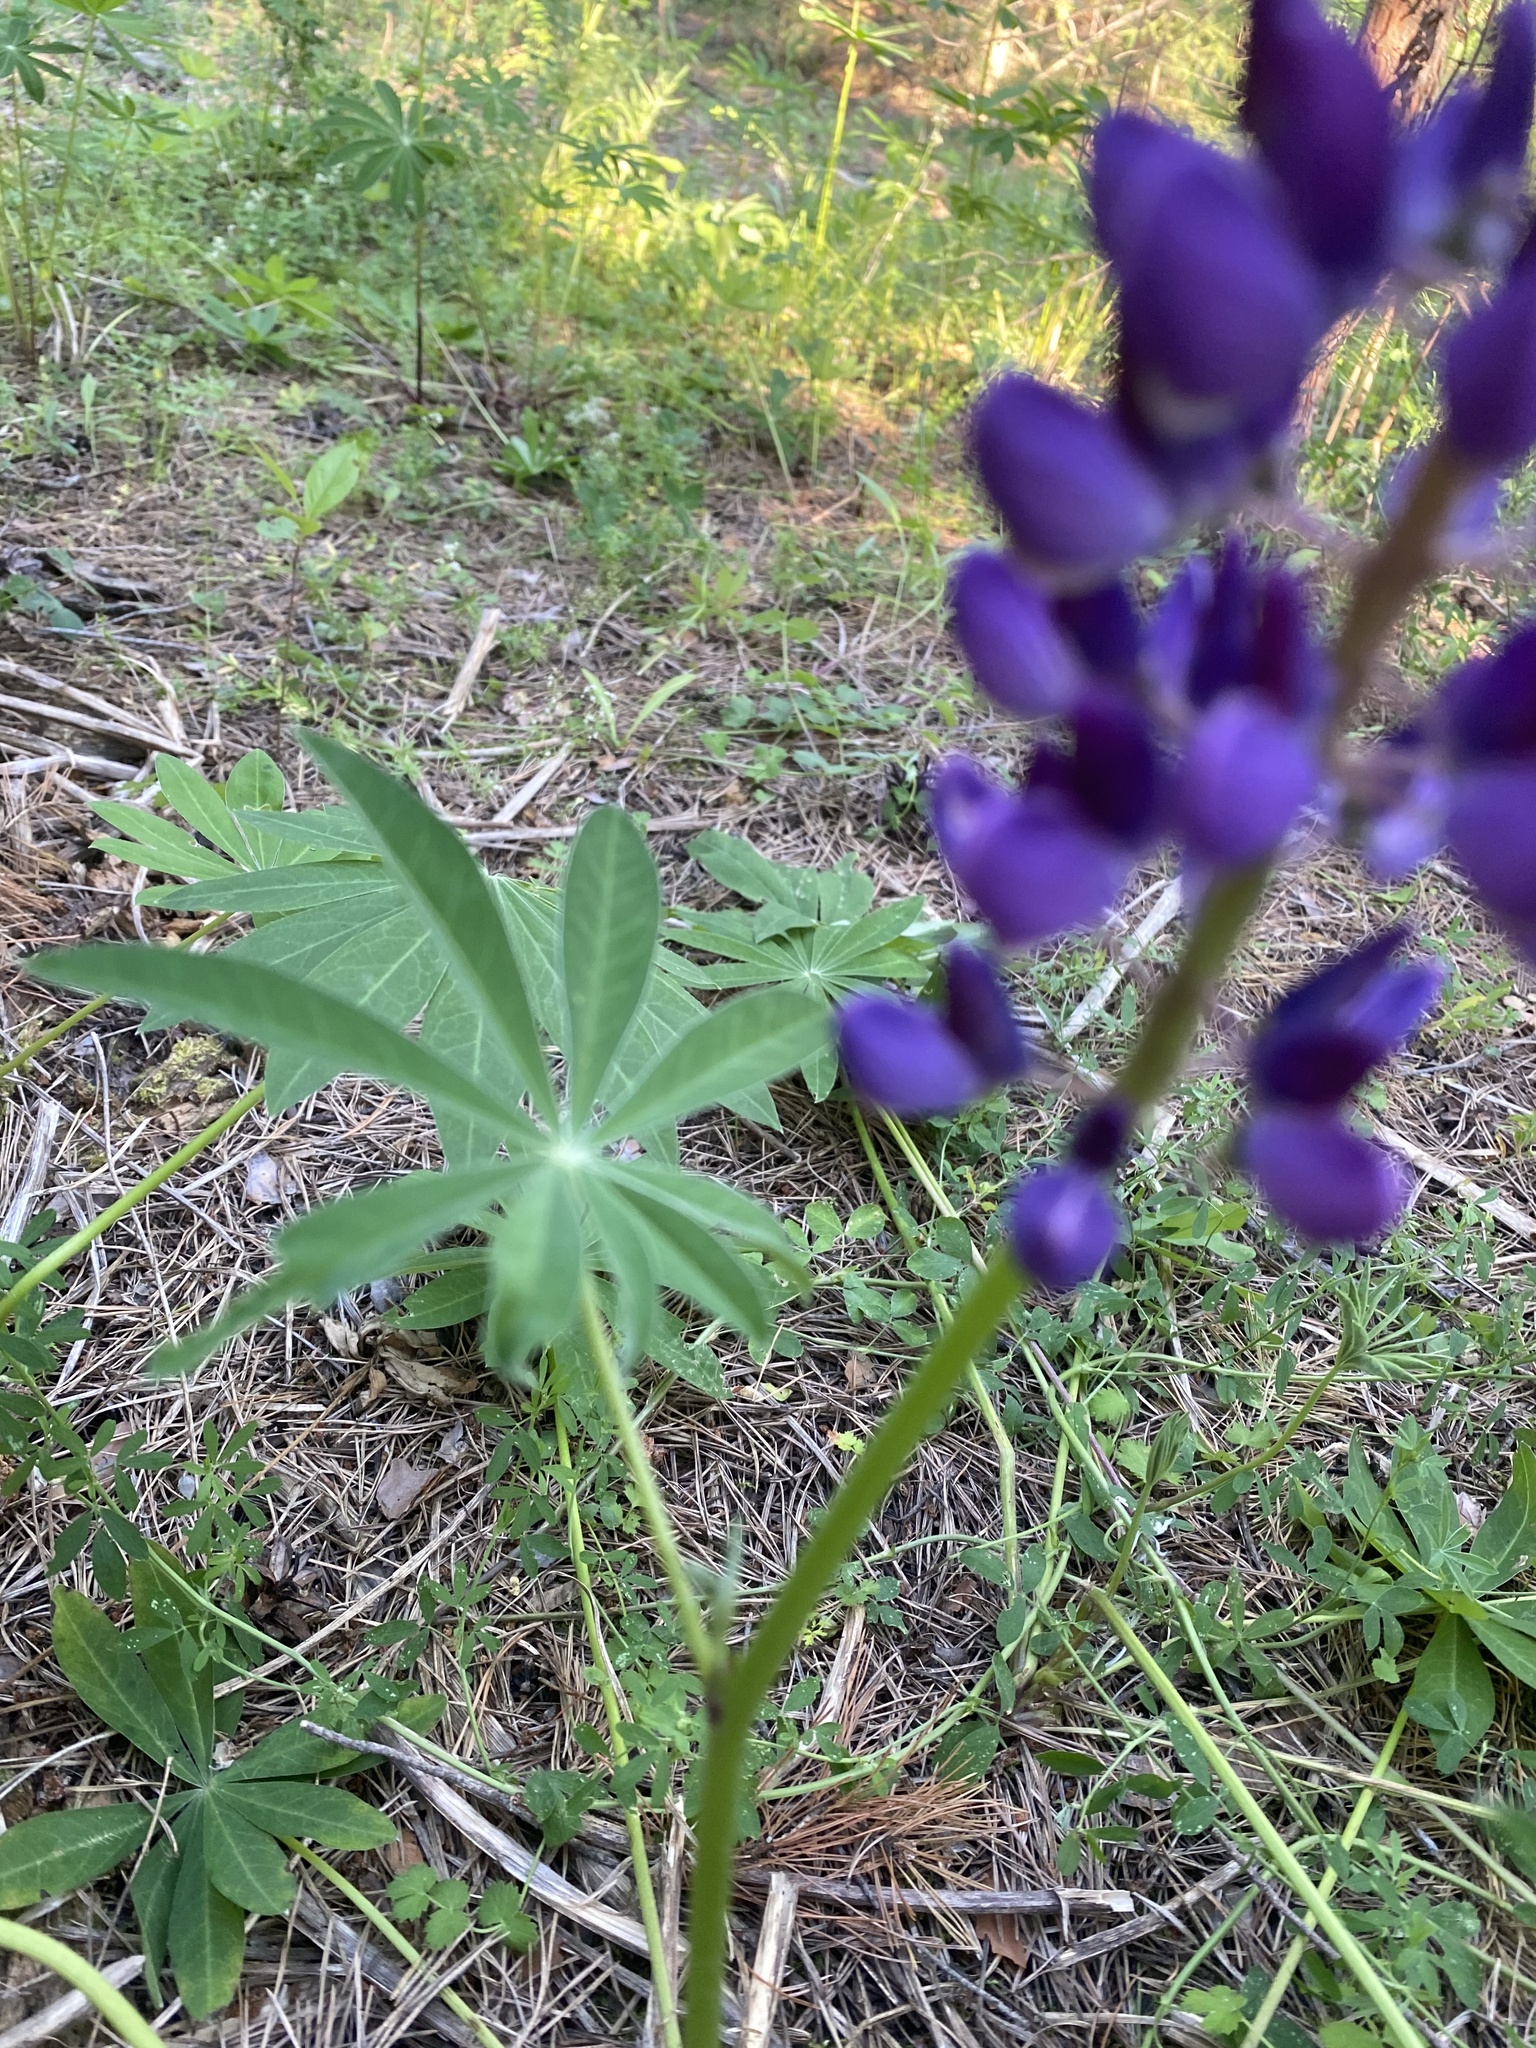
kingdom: Plantae
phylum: Tracheophyta
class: Magnoliopsida
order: Fabales
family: Fabaceae
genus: Lupinus
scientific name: Lupinus polyphyllus
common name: Garden lupin
